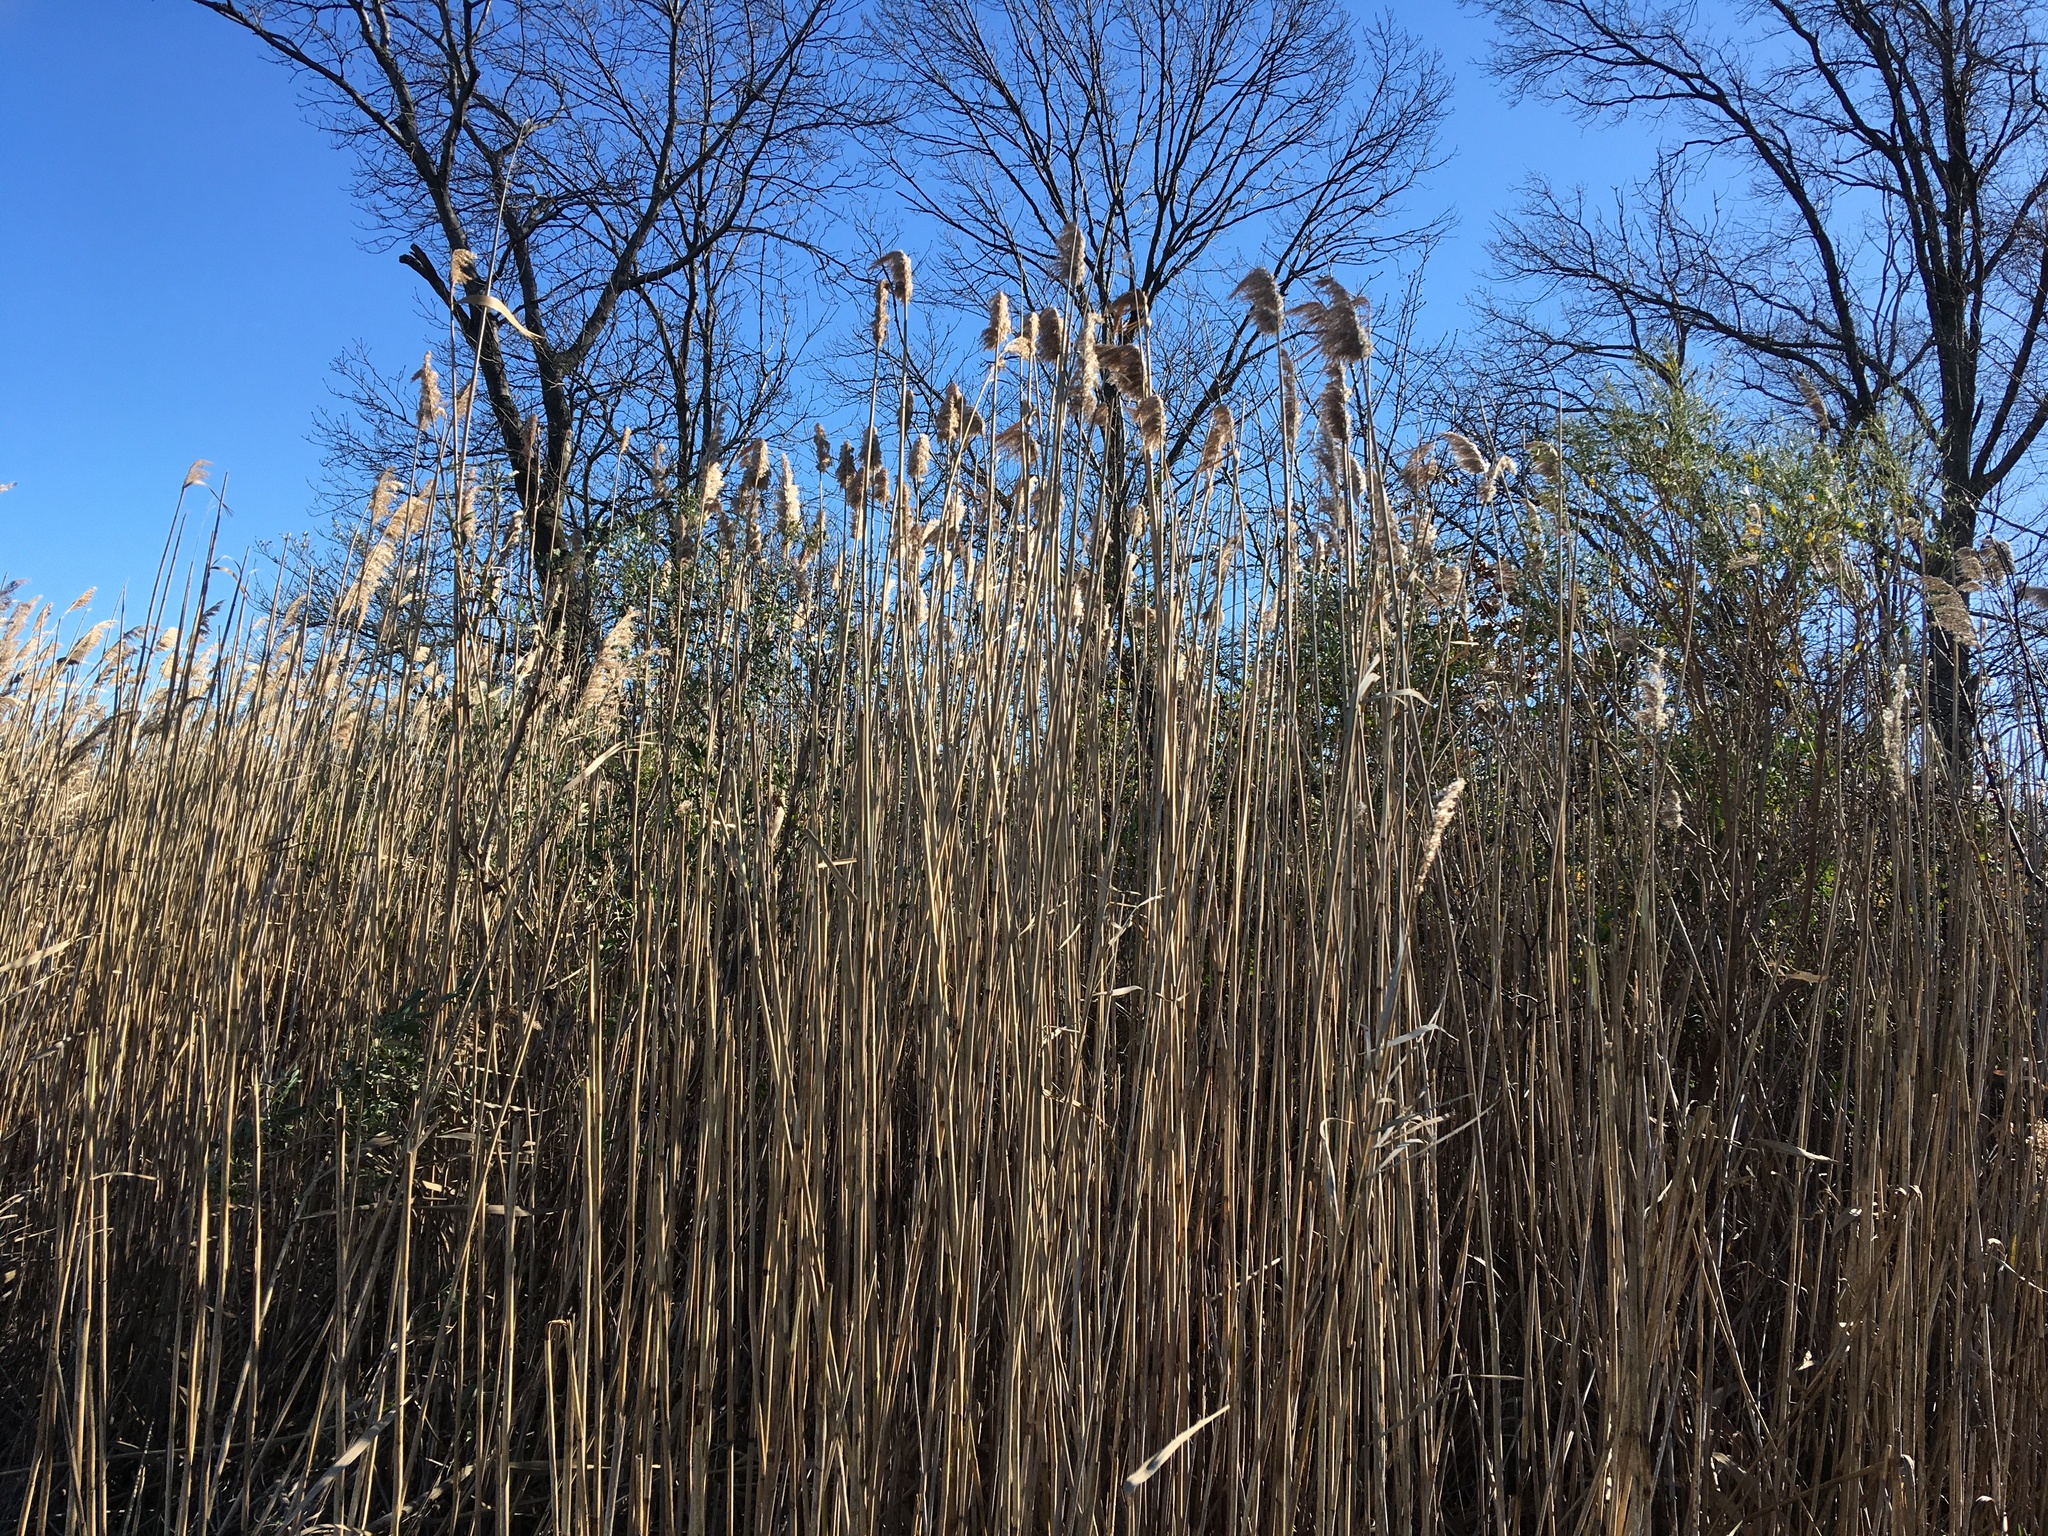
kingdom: Plantae
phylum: Tracheophyta
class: Liliopsida
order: Poales
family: Poaceae
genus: Phragmites
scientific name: Phragmites australis
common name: Common reed
